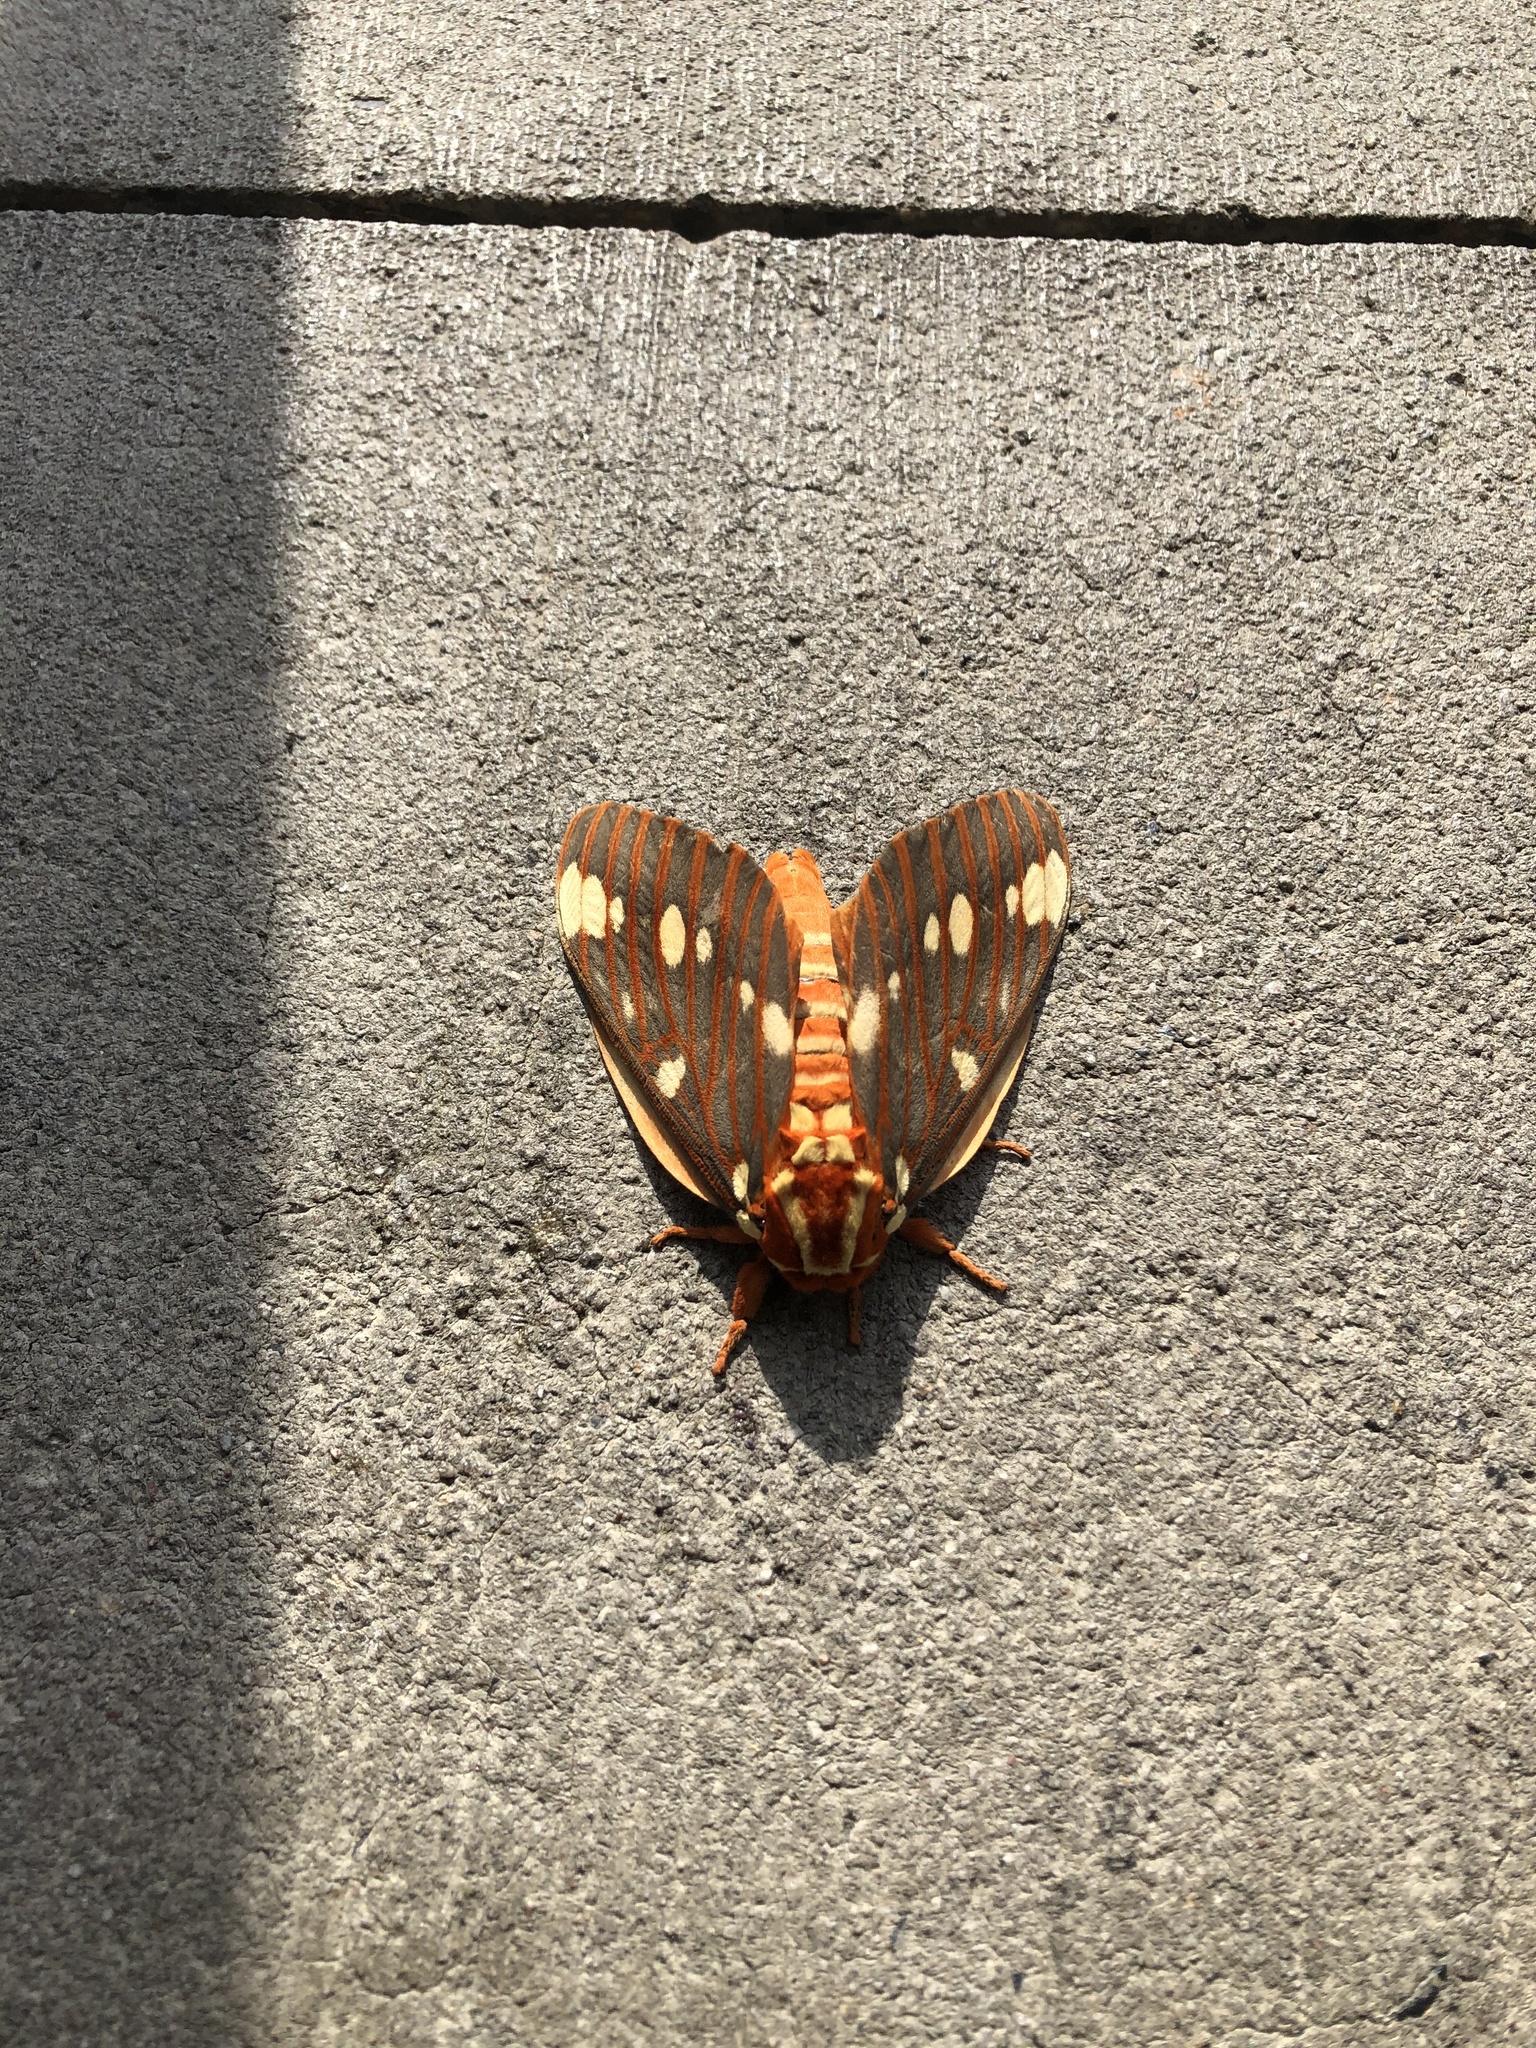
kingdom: Animalia
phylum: Arthropoda
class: Insecta
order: Lepidoptera
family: Saturniidae
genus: Citheronia
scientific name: Citheronia regalis
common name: Hickory horned devil
